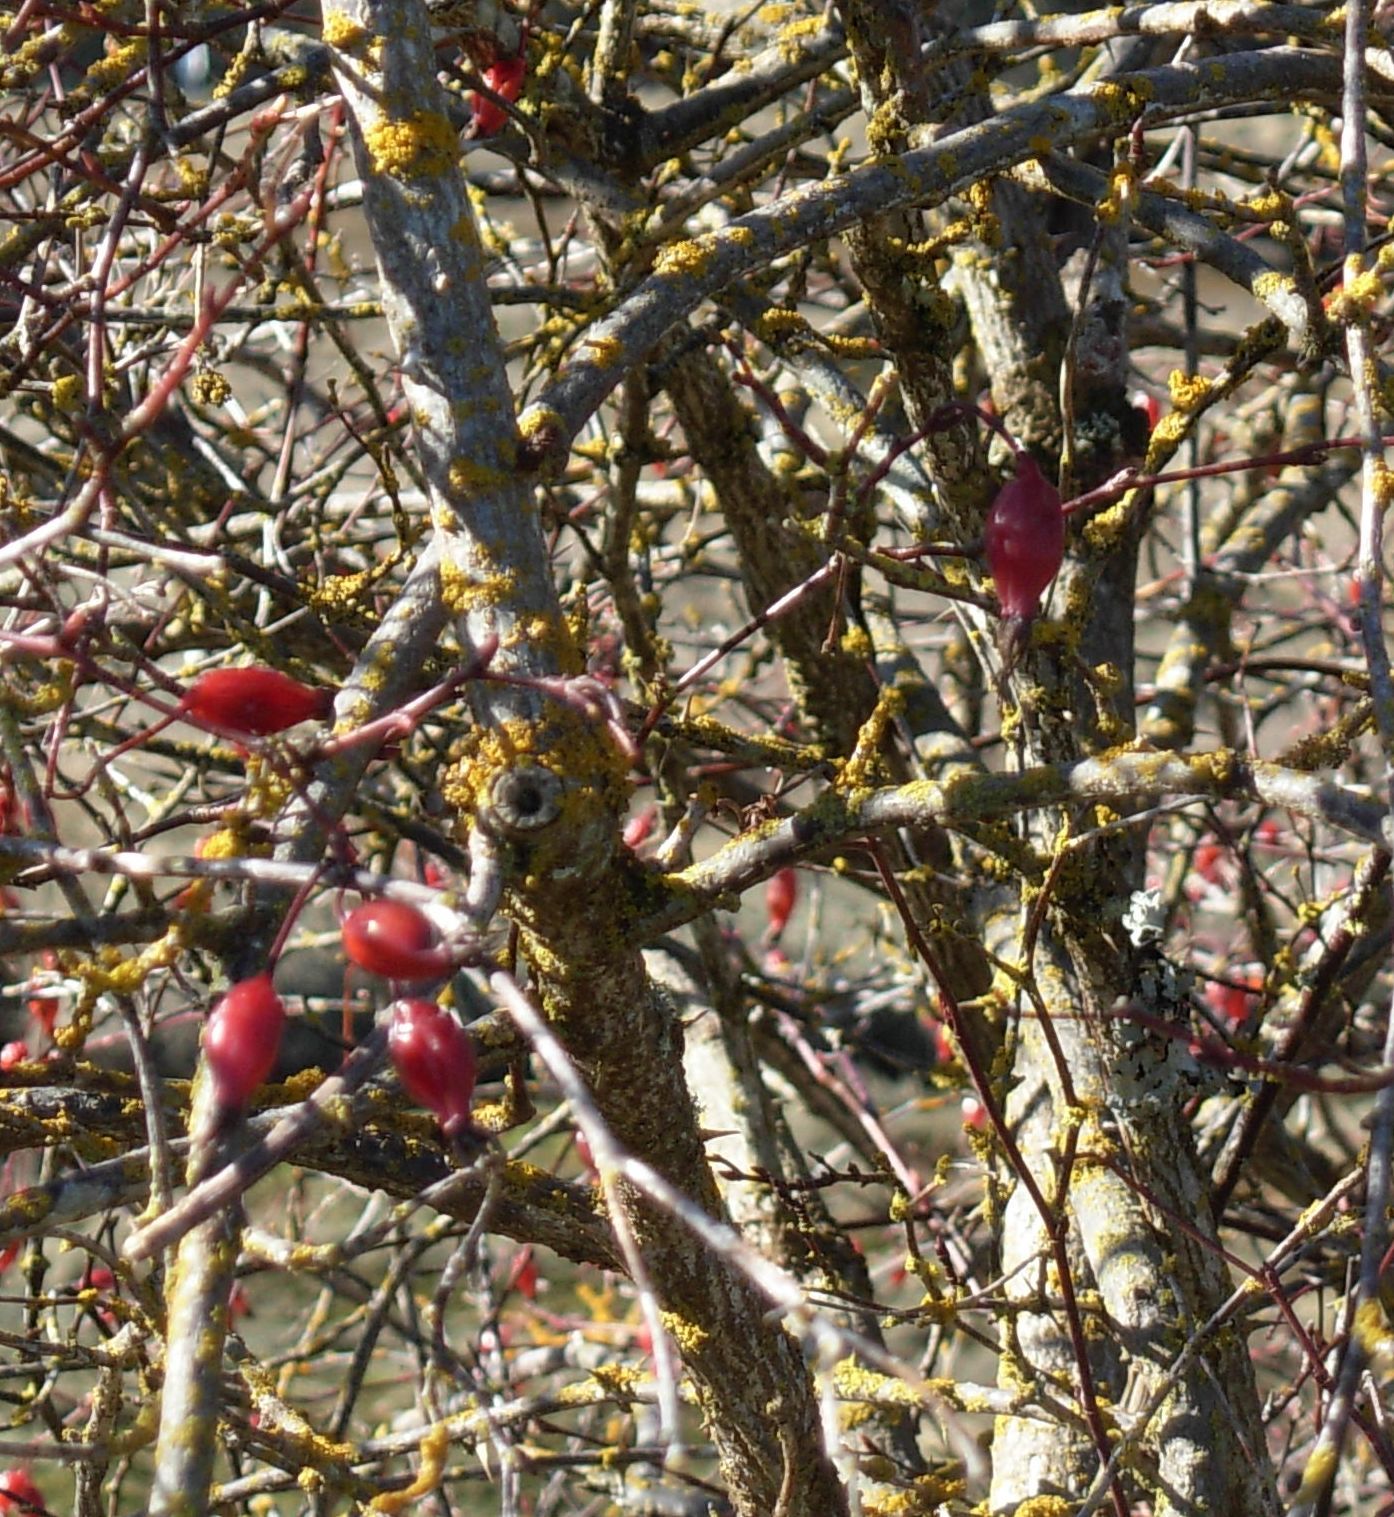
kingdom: Plantae
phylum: Tracheophyta
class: Magnoliopsida
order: Rosales
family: Rosaceae
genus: Rosa
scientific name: Rosa canina
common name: Dog rose
